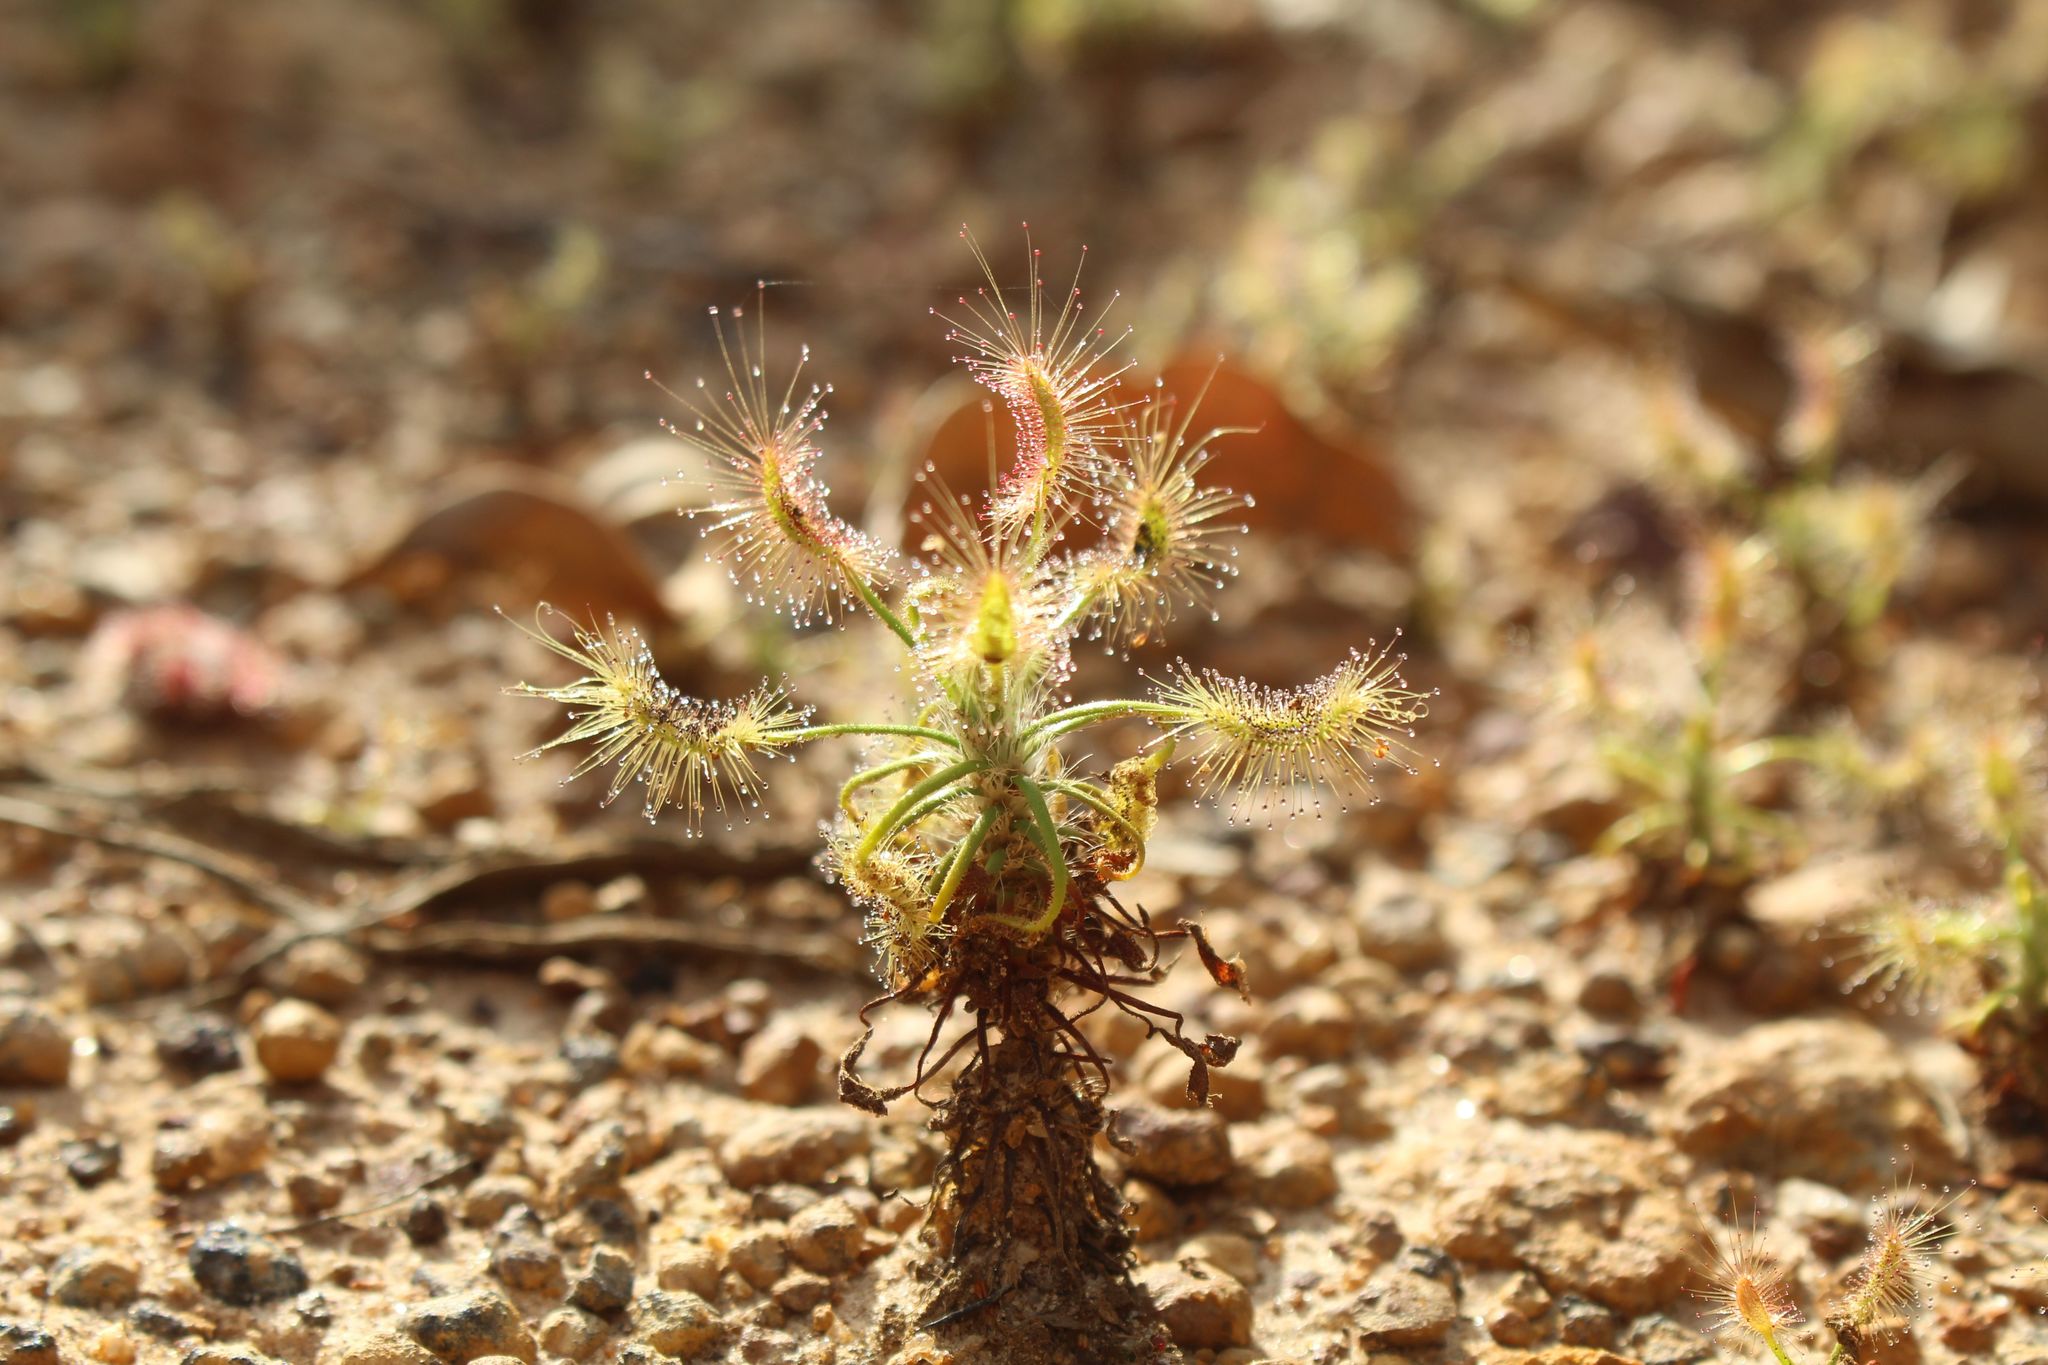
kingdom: Plantae
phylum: Tracheophyta
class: Magnoliopsida
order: Caryophyllales
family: Droseraceae
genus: Drosera
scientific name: Drosera scorpioides
